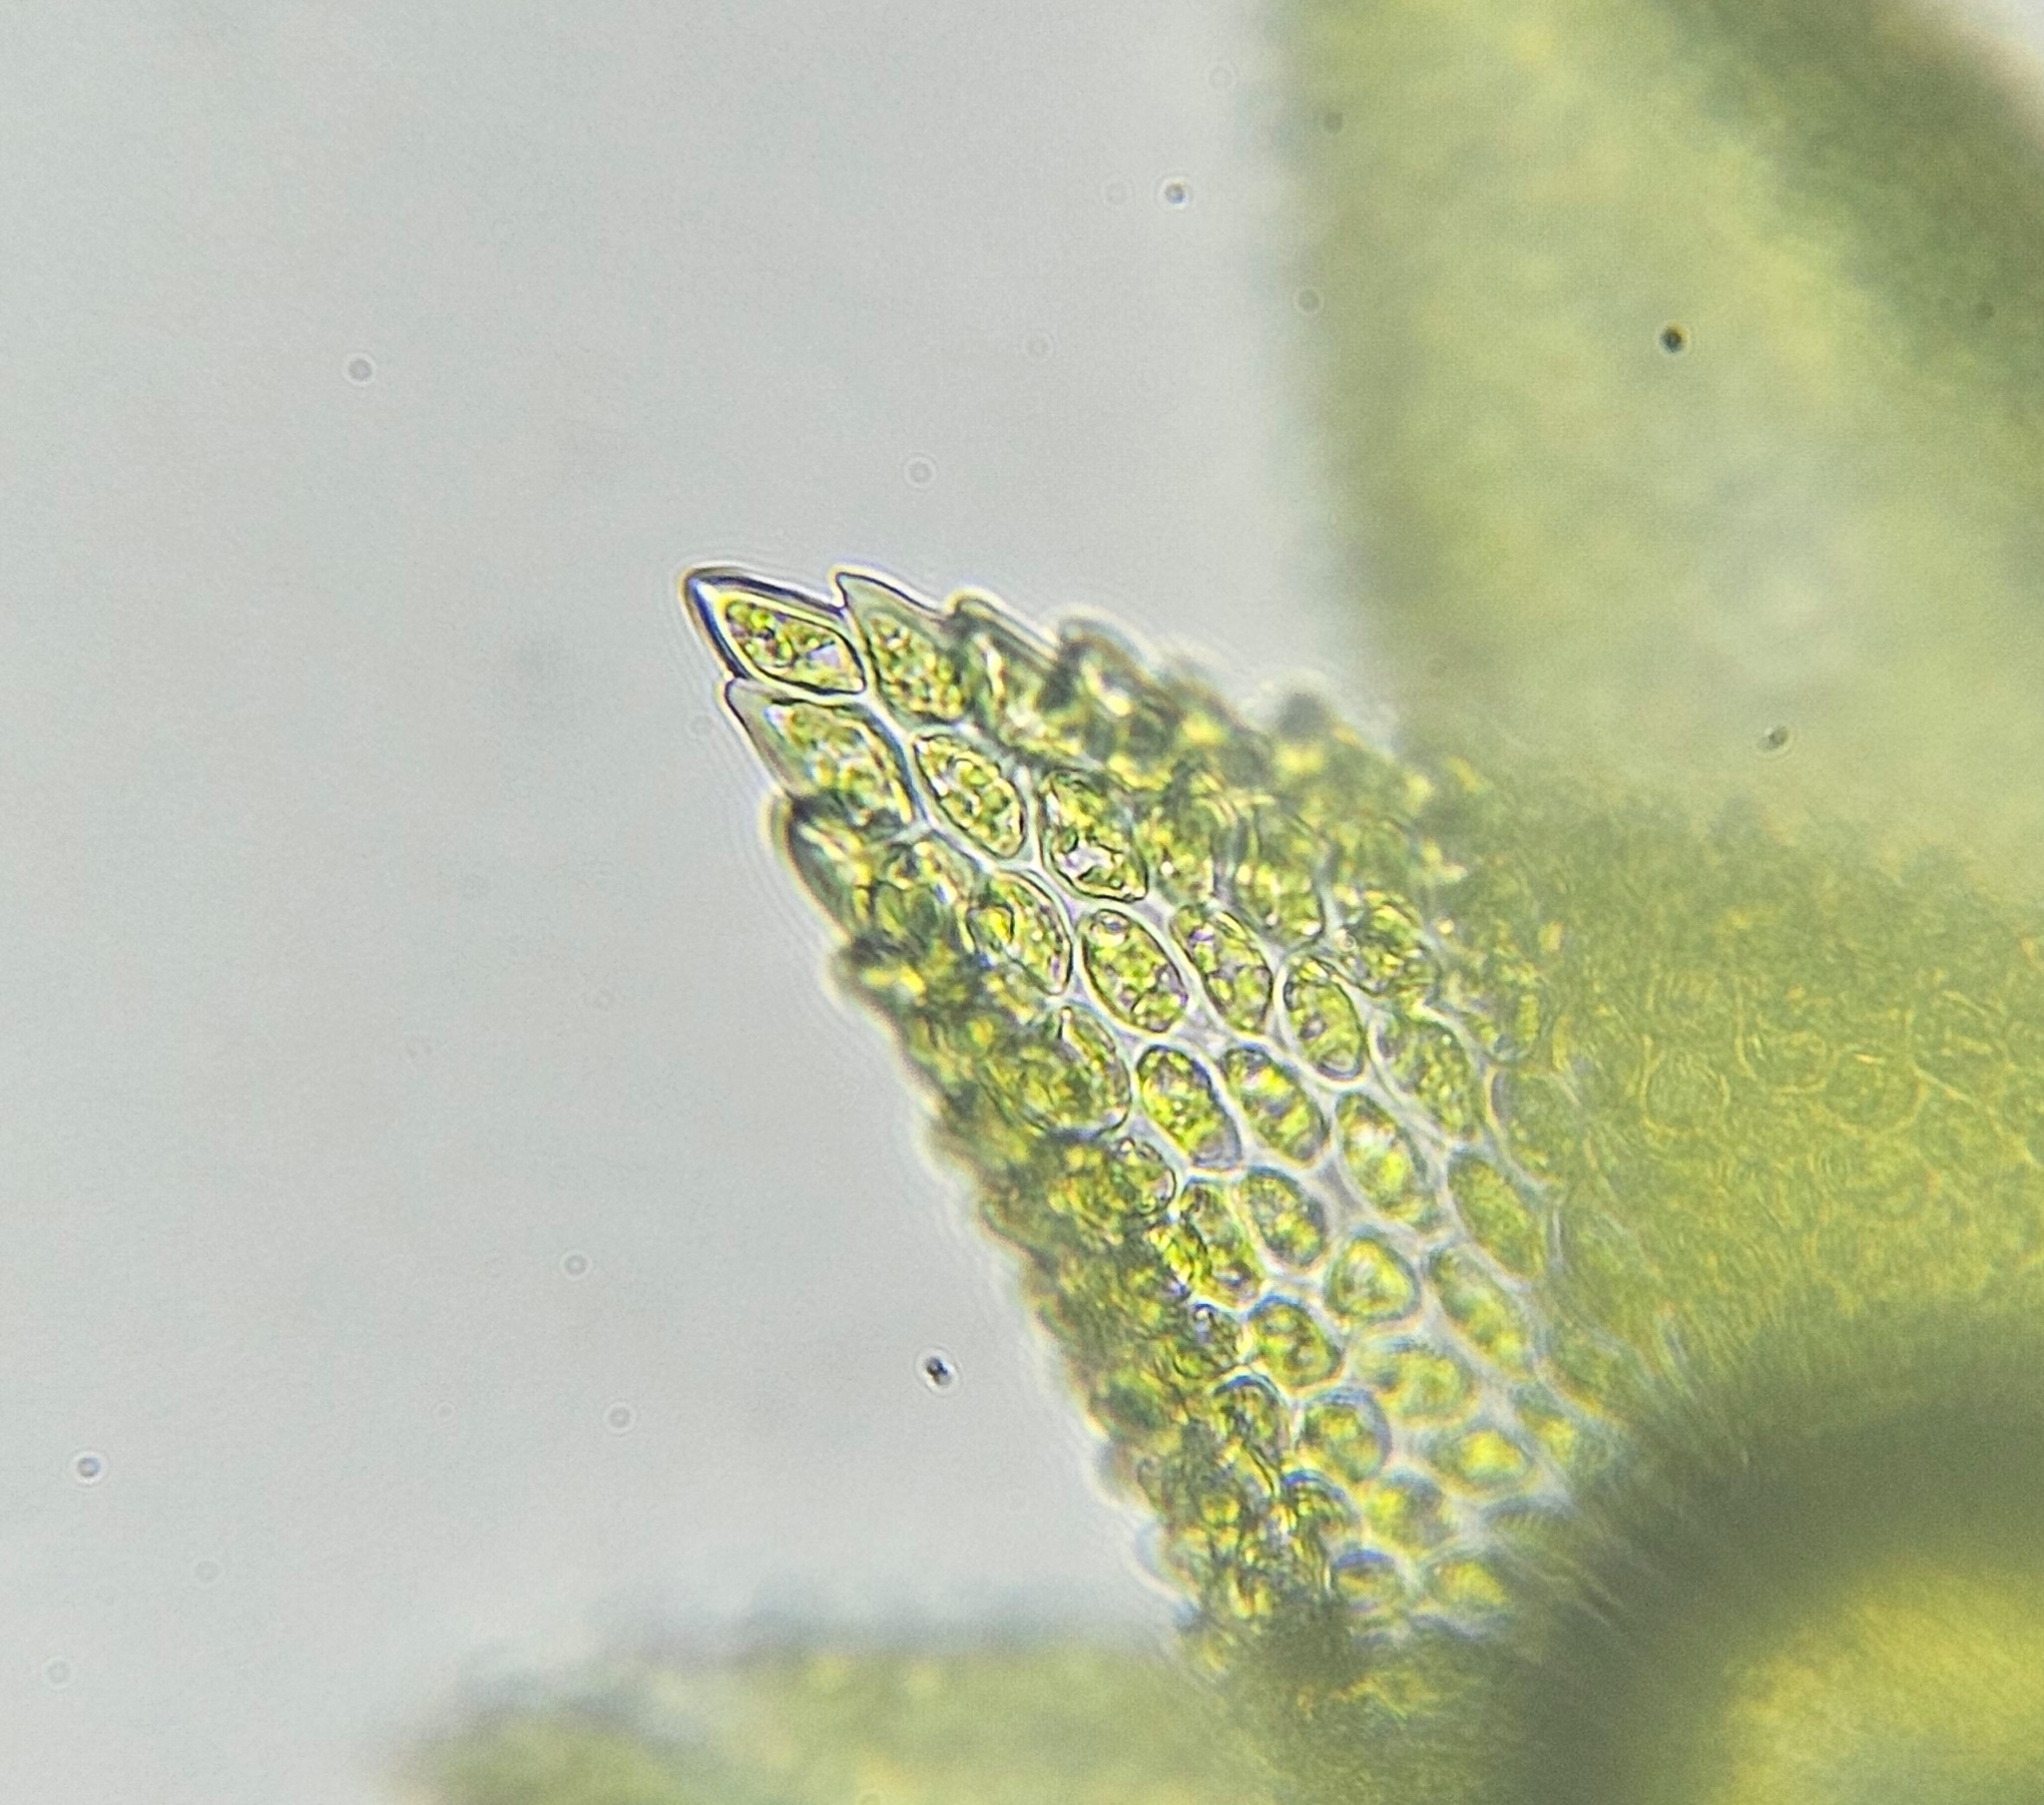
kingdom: Plantae
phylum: Bryophyta
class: Bryopsida
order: Hypnales
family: Thuidiaceae
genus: Thuidium
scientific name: Thuidium tamariscinum
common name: Common tamarisk-moss
